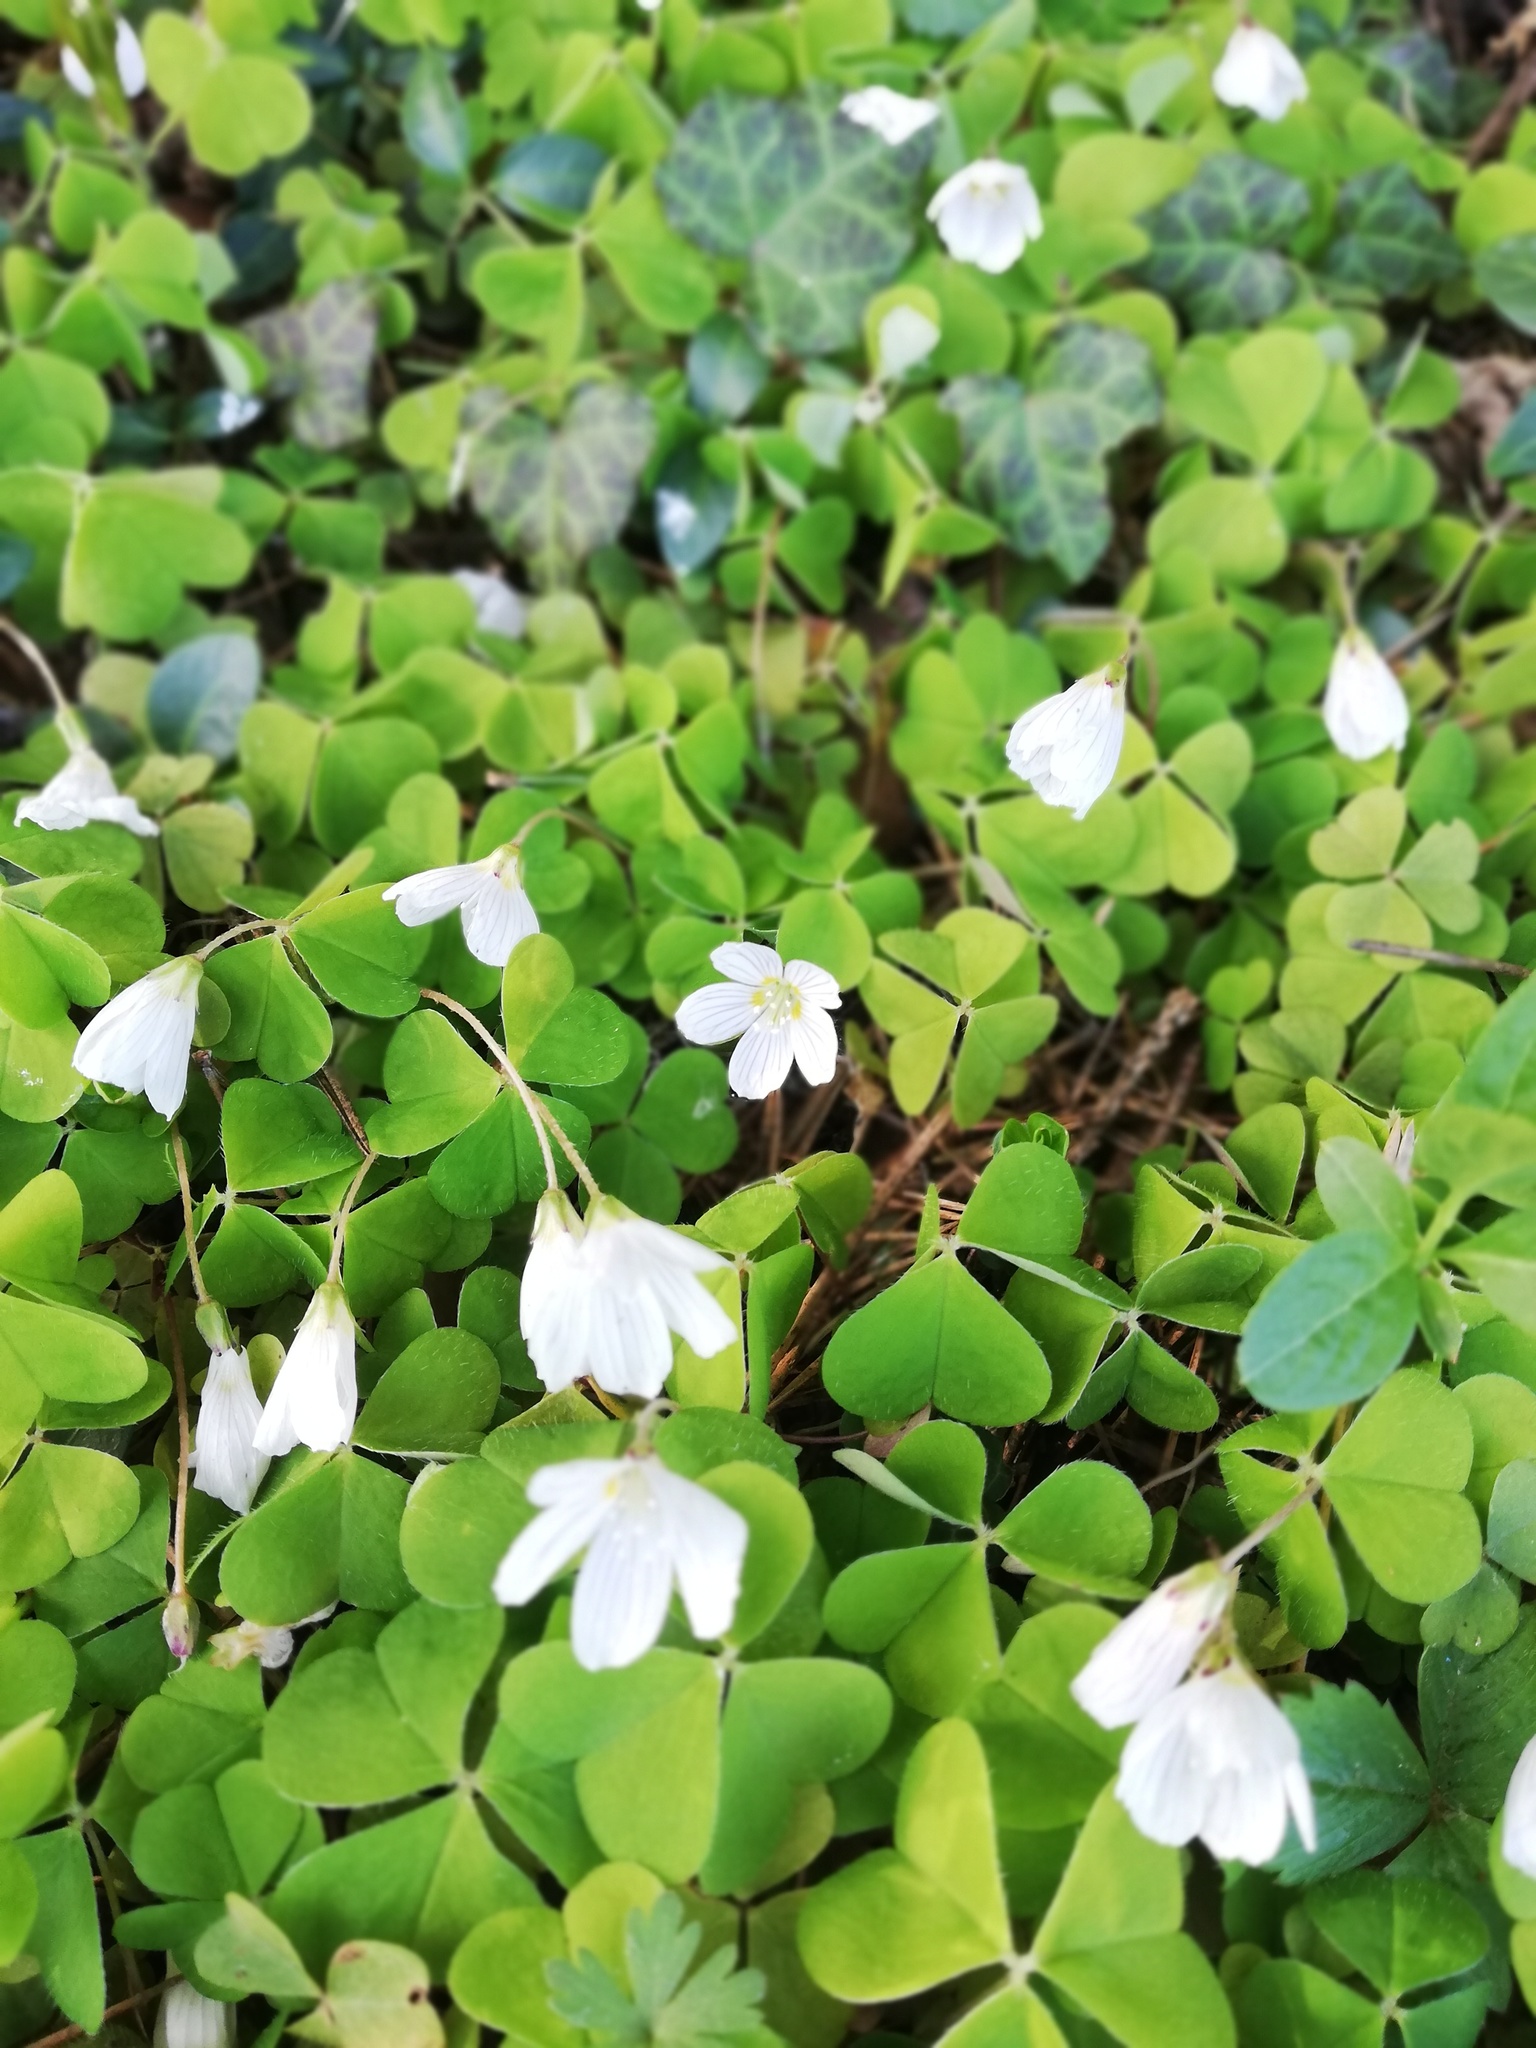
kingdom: Plantae
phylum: Tracheophyta
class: Magnoliopsida
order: Oxalidales
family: Oxalidaceae
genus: Oxalis
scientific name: Oxalis acetosella
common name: Wood-sorrel
